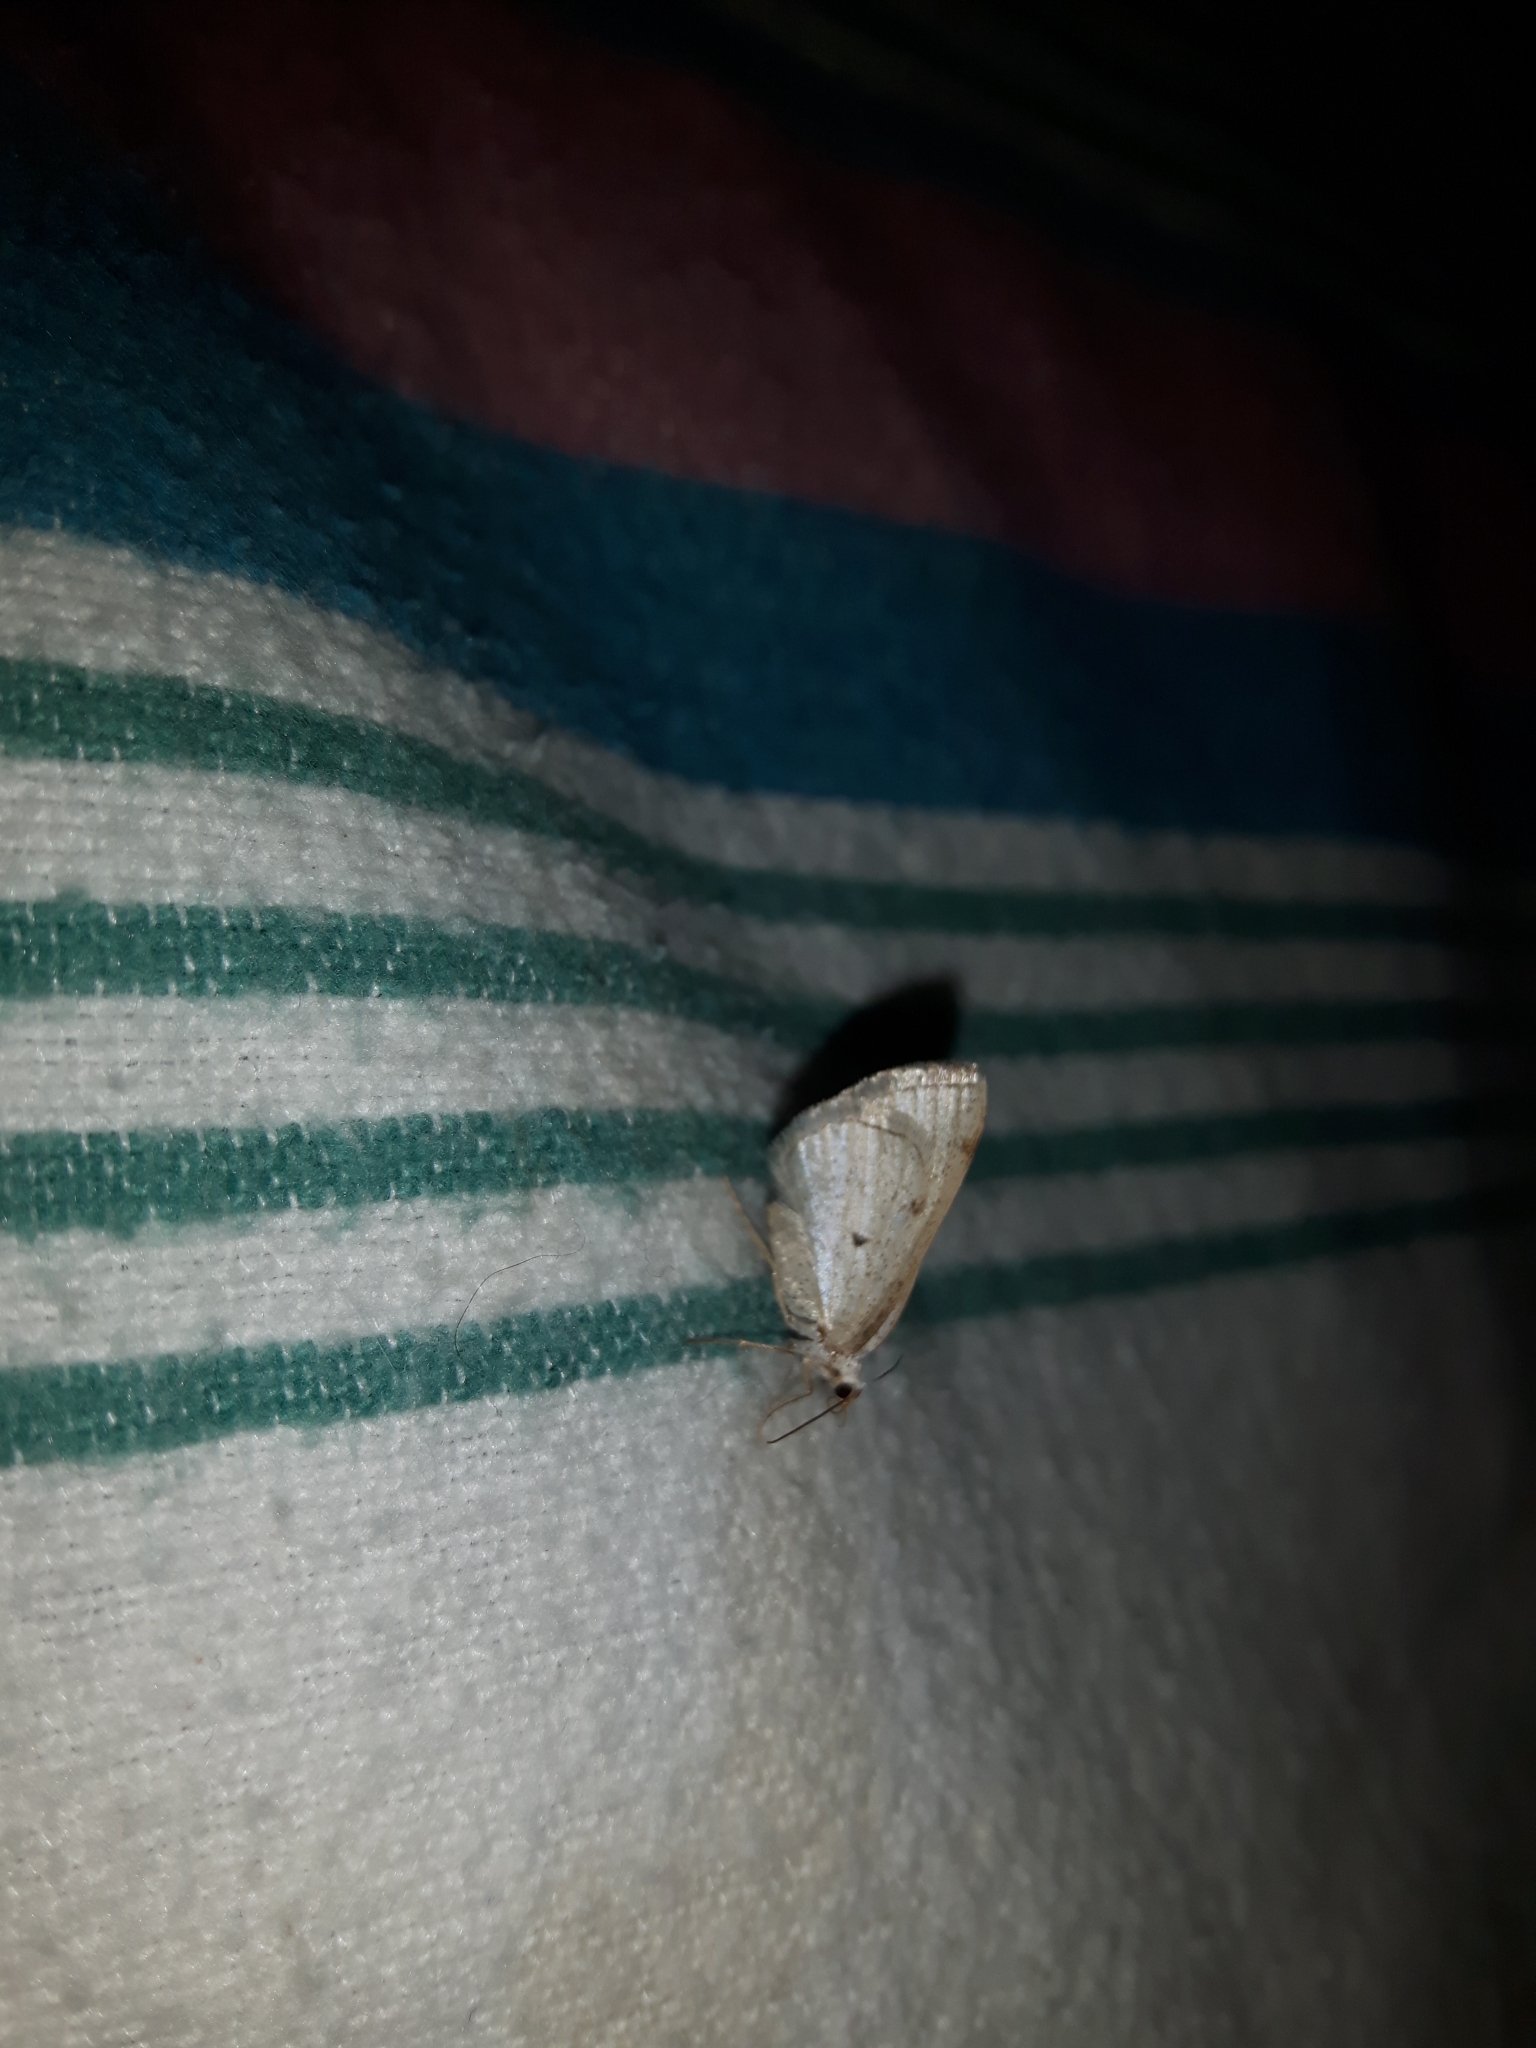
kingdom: Animalia
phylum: Arthropoda
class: Insecta
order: Lepidoptera
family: Geometridae
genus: Lomographa
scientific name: Lomographa glomeraria
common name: Gray spring moth
